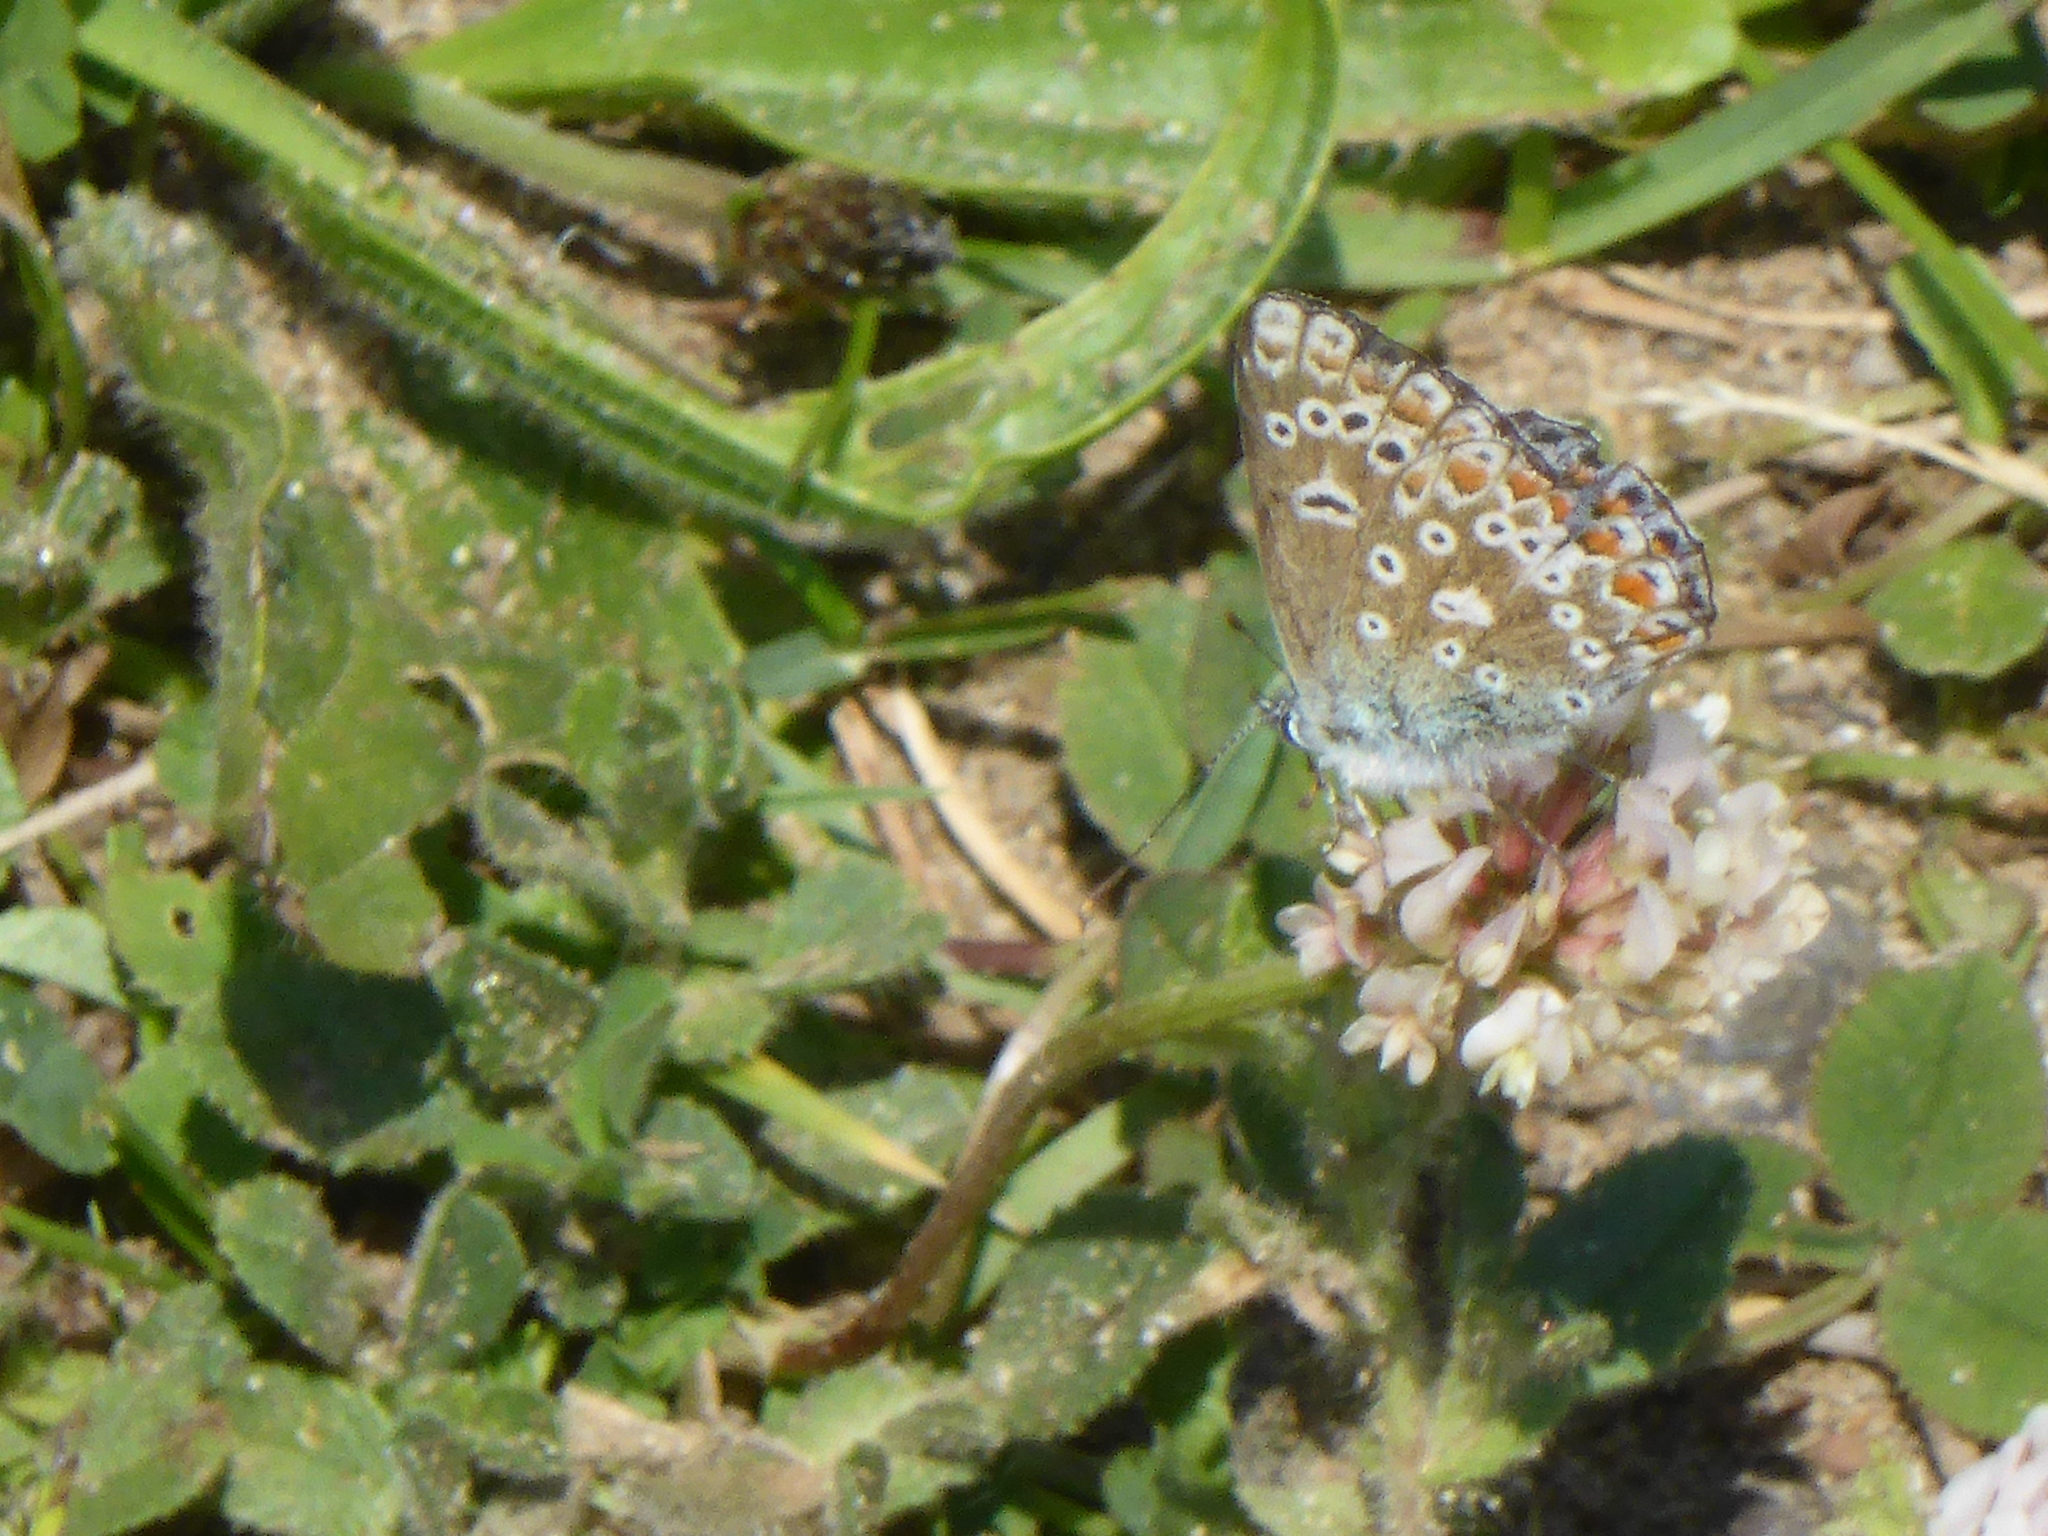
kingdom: Animalia
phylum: Arthropoda
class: Insecta
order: Lepidoptera
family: Lycaenidae
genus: Polyommatus
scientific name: Polyommatus icarus
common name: Common blue
